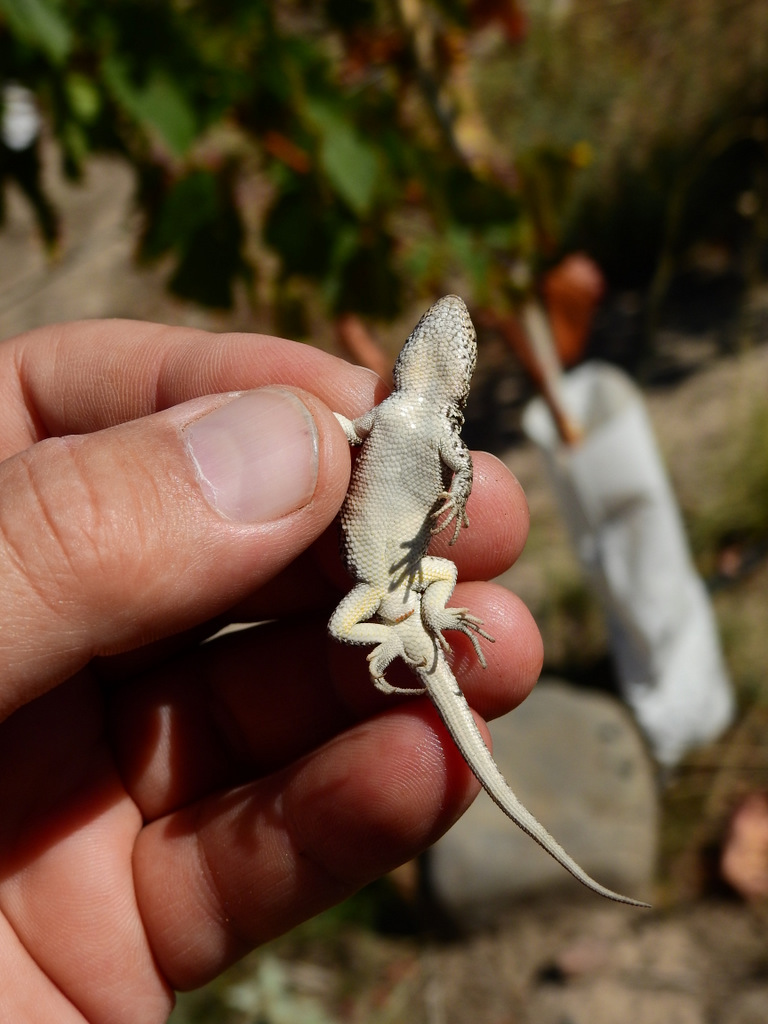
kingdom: Animalia
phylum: Chordata
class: Squamata
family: Liolaemidae
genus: Liolaemus
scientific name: Liolaemus wiegmannii
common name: Wiegmann's tree iguana
